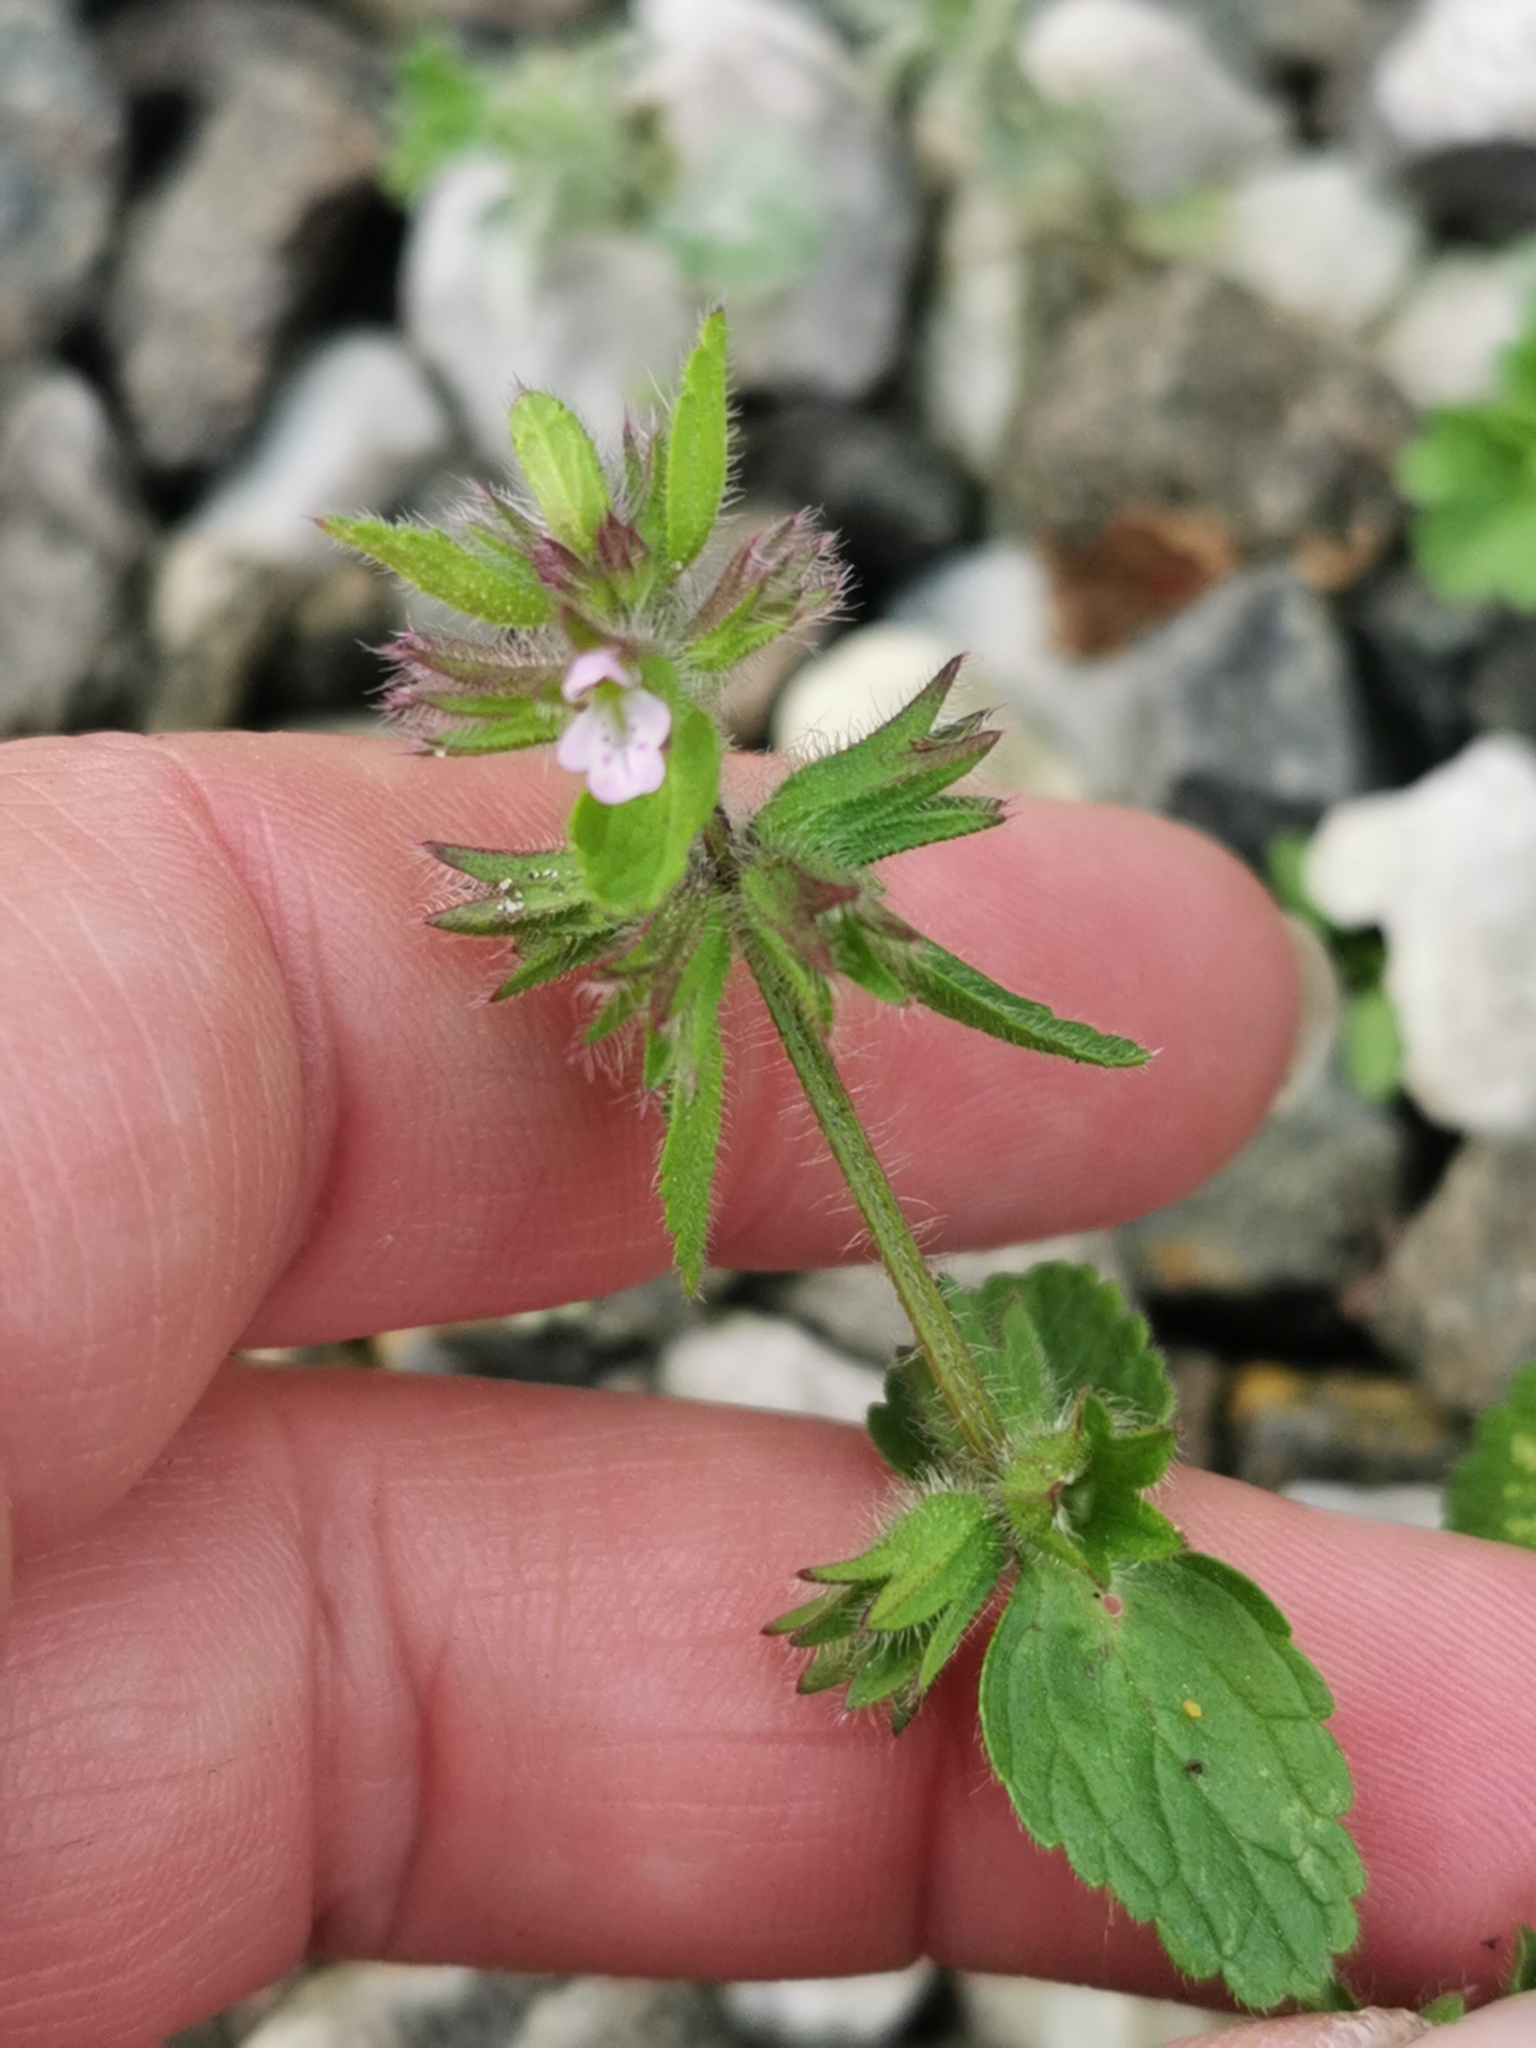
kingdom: Plantae
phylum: Tracheophyta
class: Magnoliopsida
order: Lamiales
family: Lamiaceae
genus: Stachys
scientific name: Stachys arvensis
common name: Field woundwort
